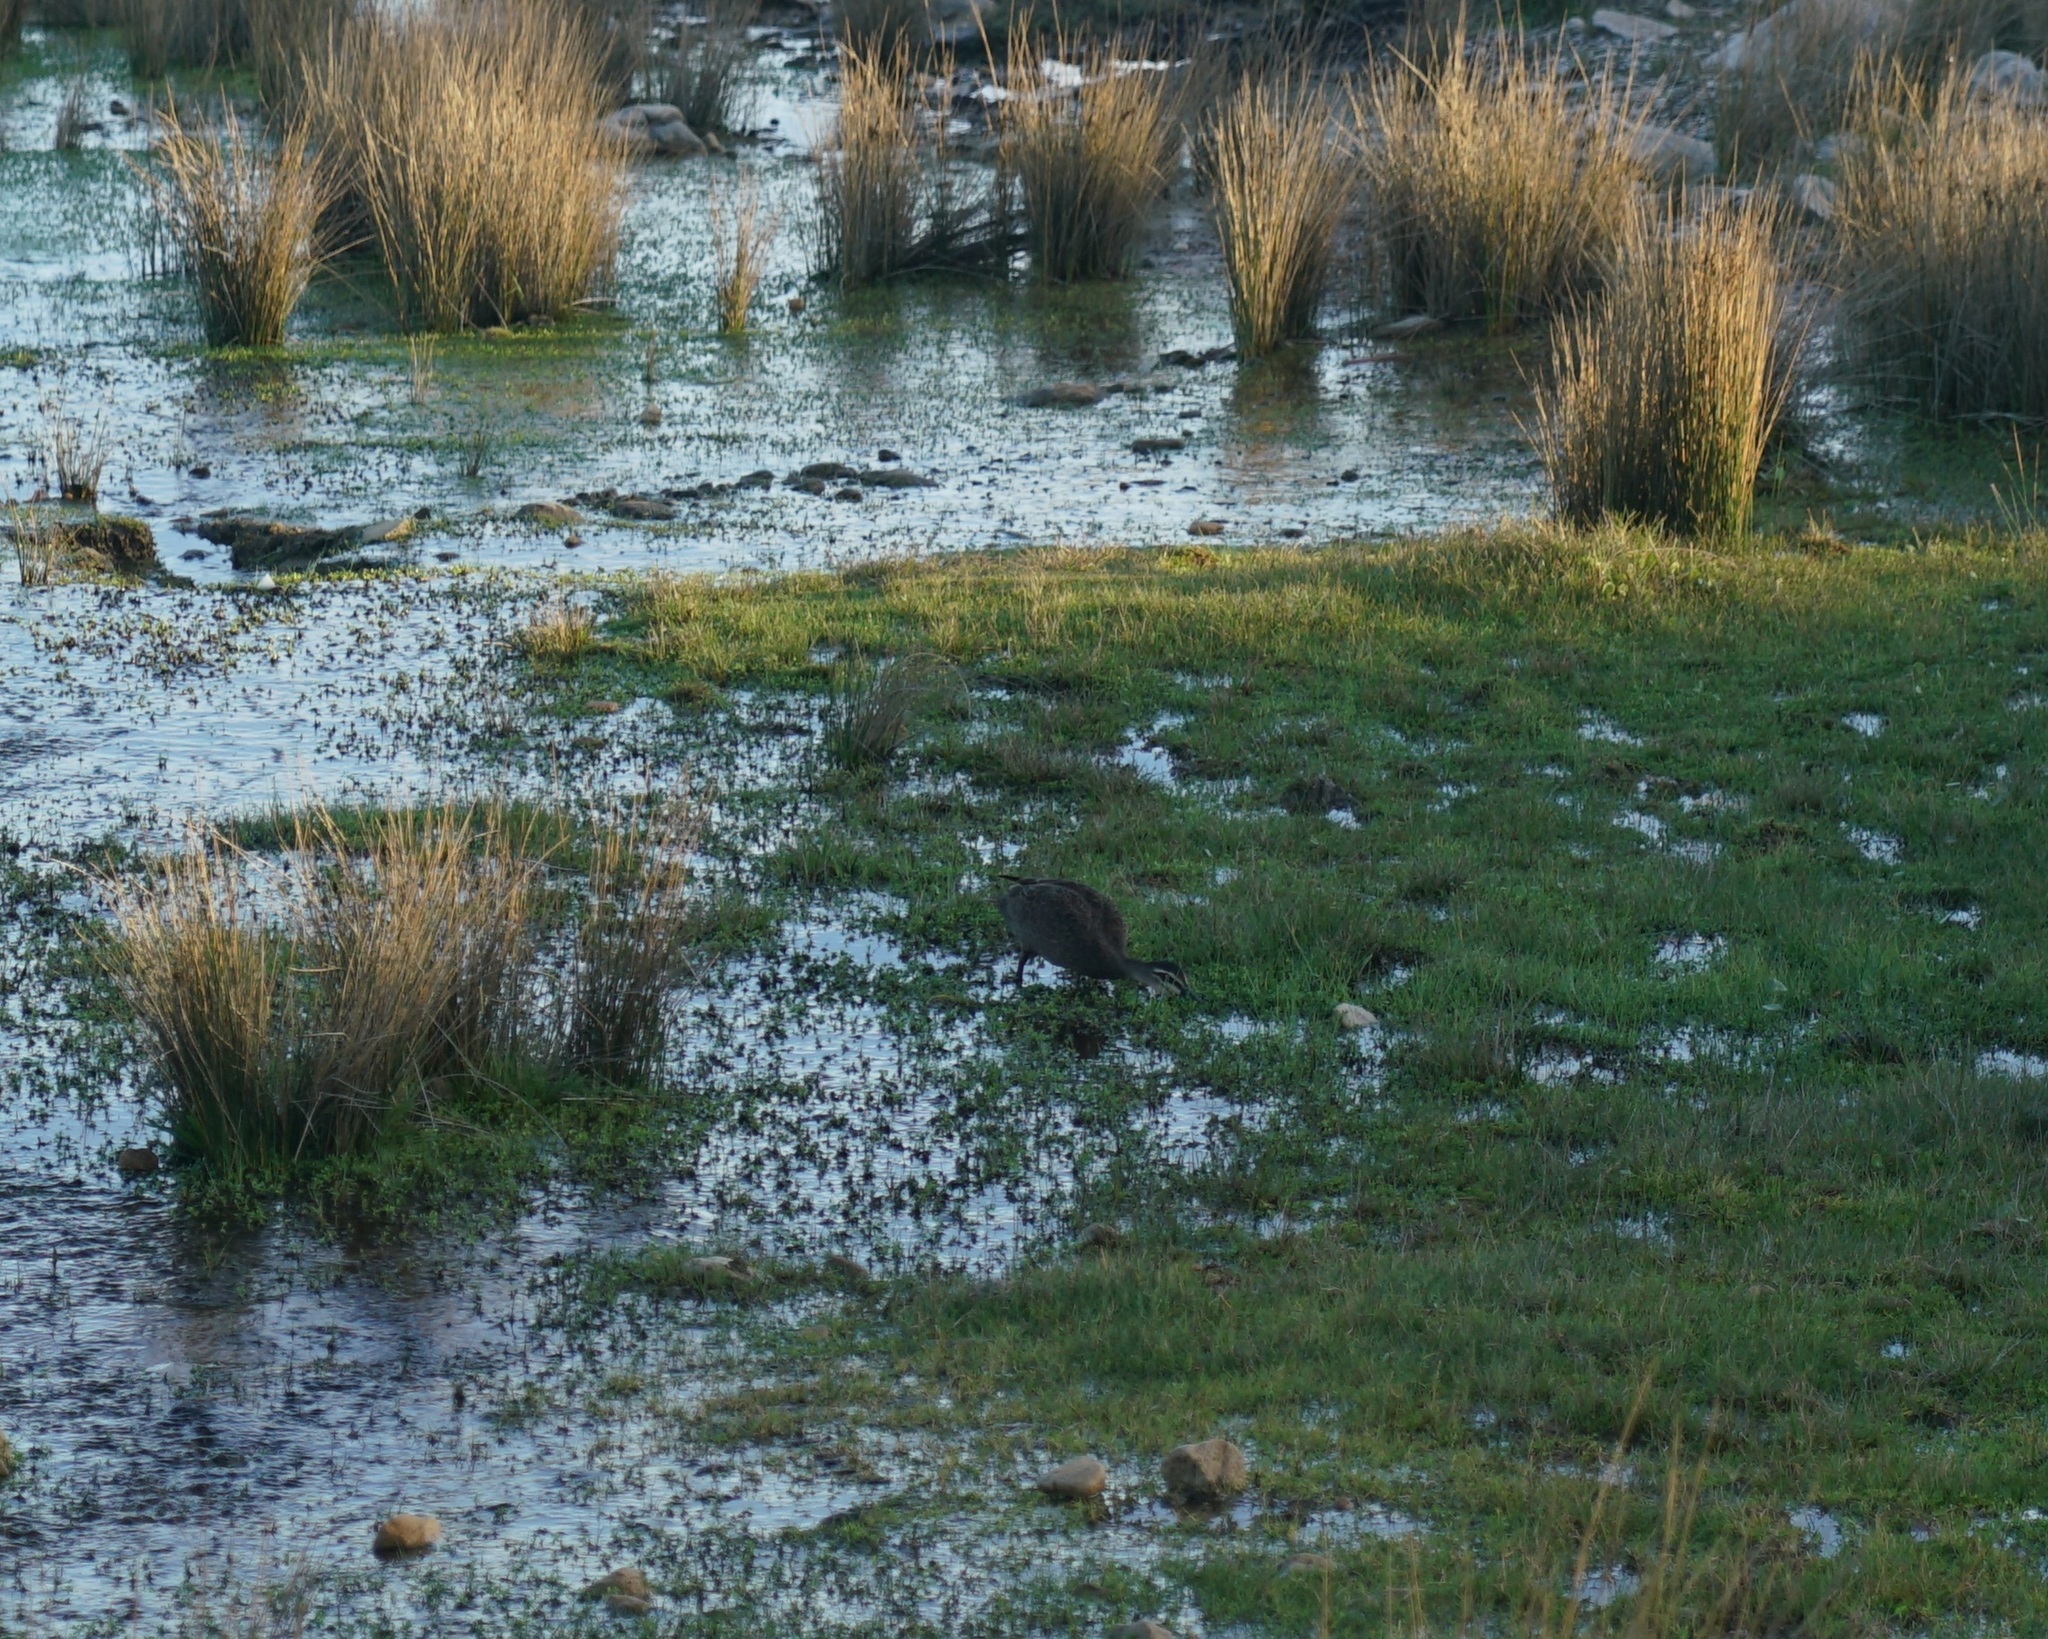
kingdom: Animalia
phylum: Chordata
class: Aves
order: Anseriformes
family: Anatidae
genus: Anas
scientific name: Anas superciliosa
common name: Pacific black duck
